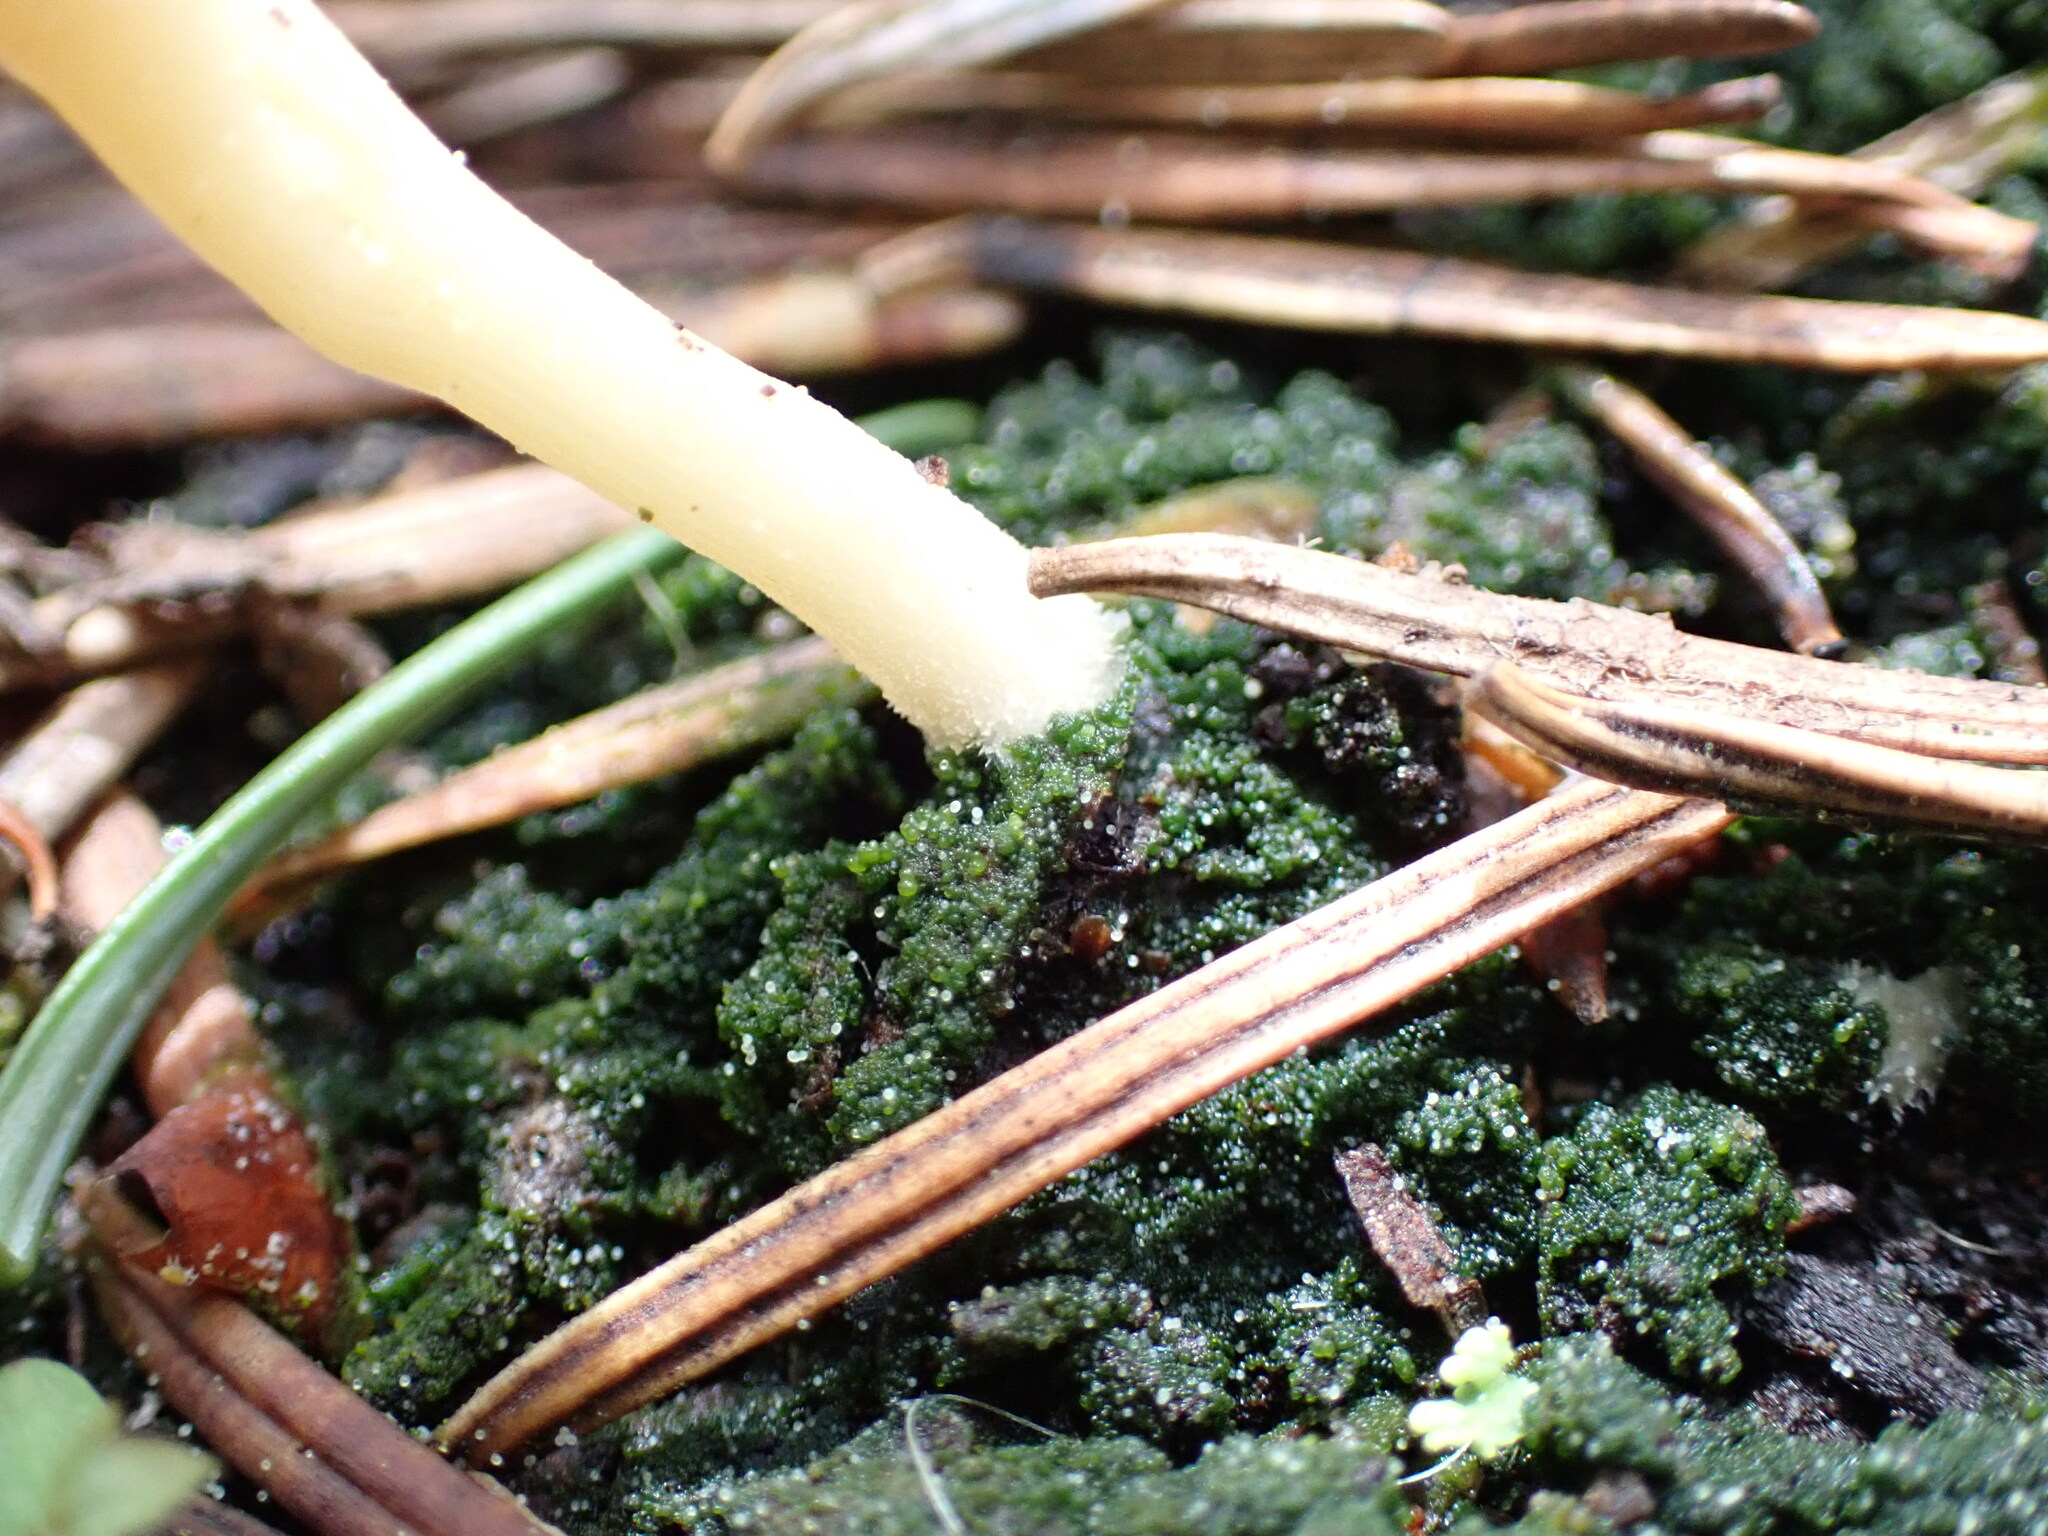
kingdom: Fungi
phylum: Basidiomycota
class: Agaricomycetes
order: Agaricales
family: Hygrophoraceae
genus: Lichenomphalia
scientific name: Lichenomphalia
